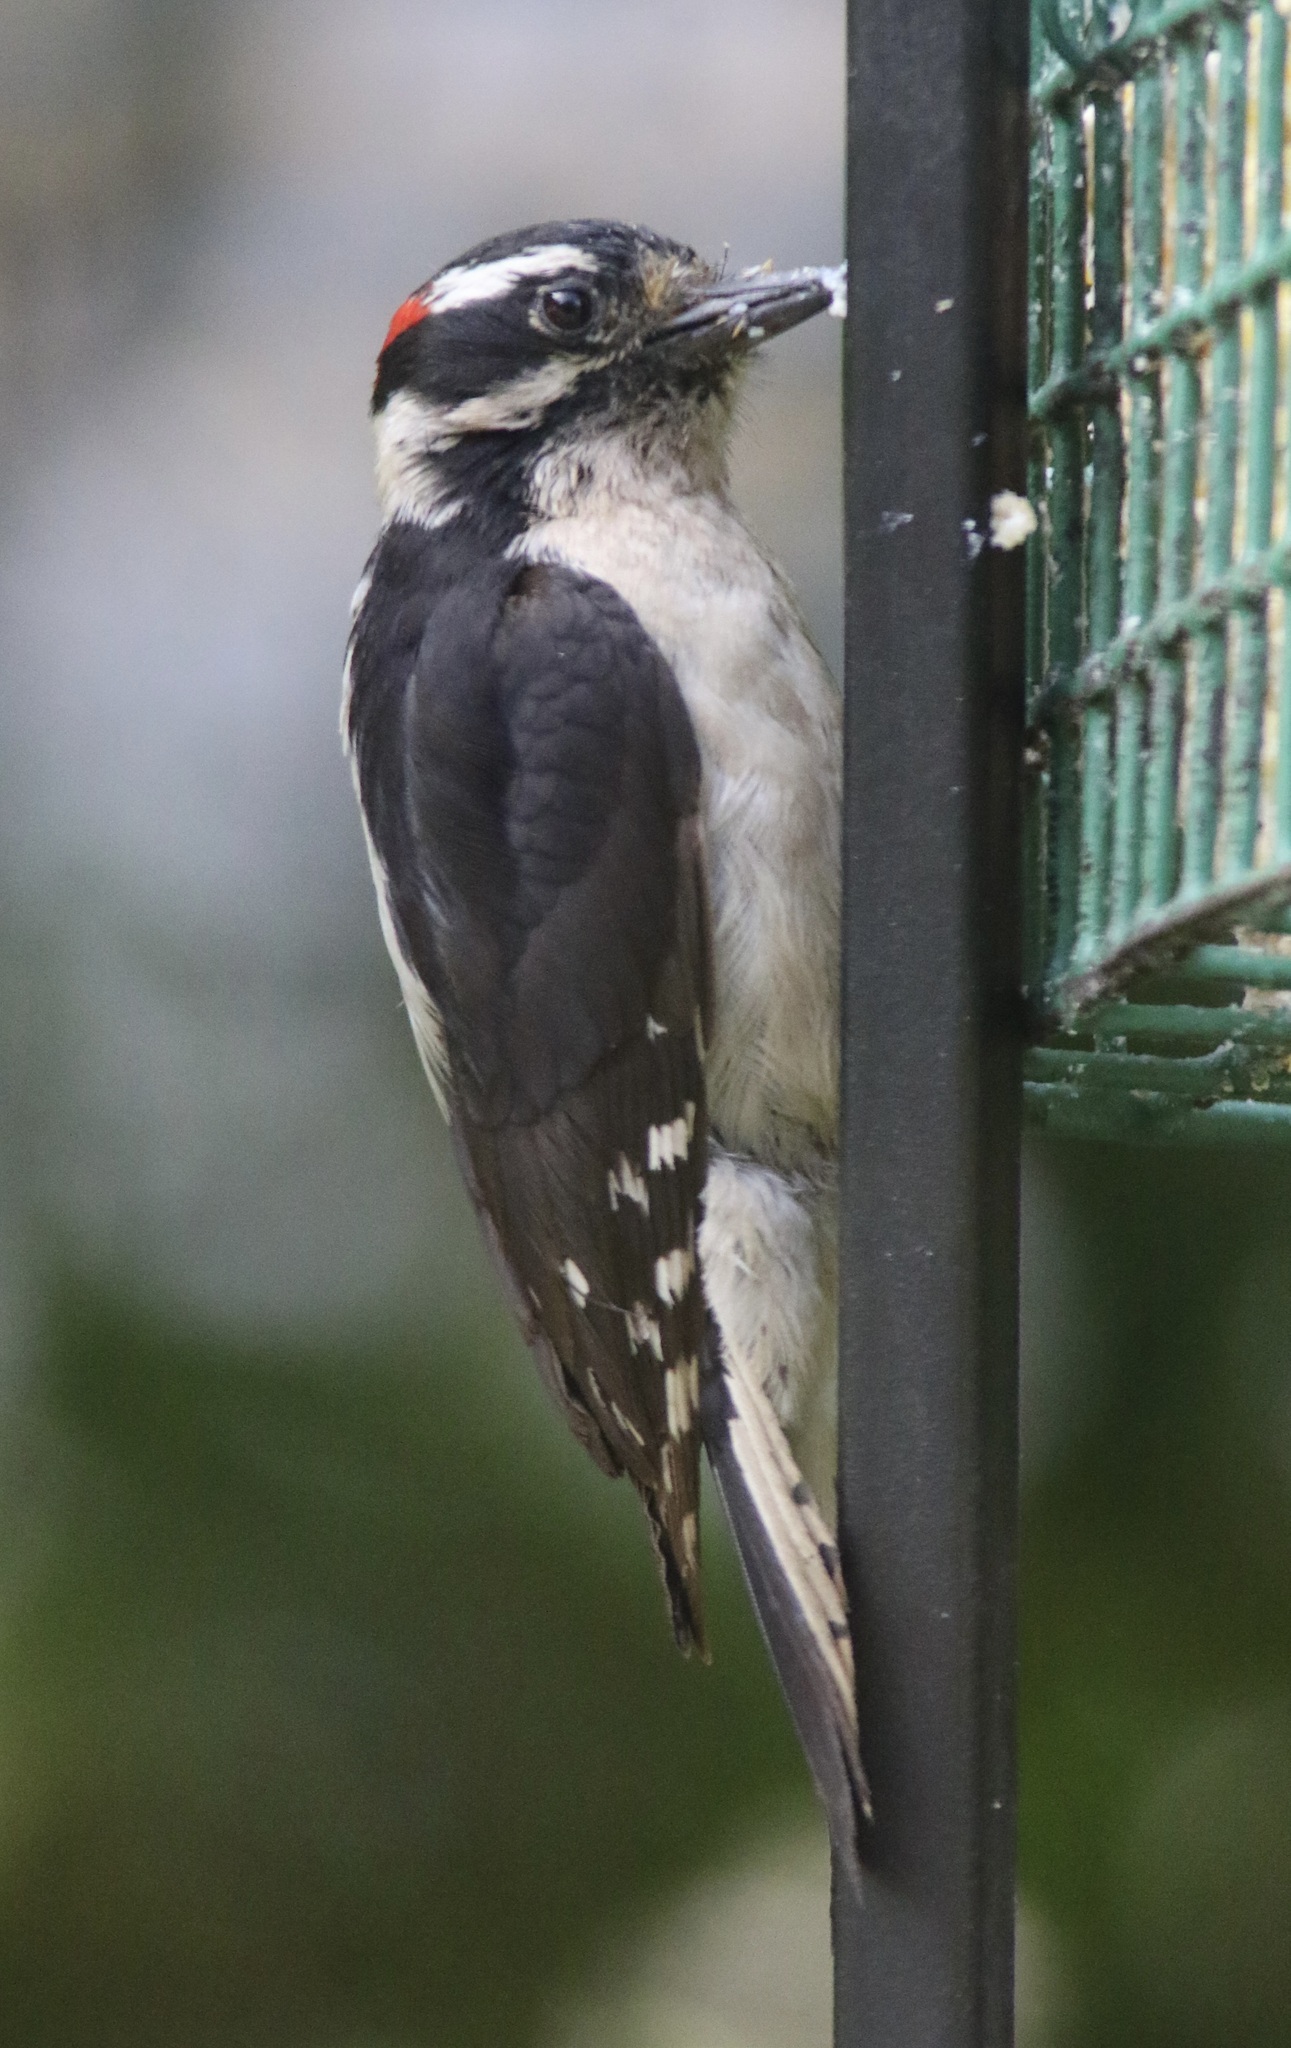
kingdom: Animalia
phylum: Chordata
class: Aves
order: Piciformes
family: Picidae
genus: Dryobates
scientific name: Dryobates pubescens
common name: Downy woodpecker
